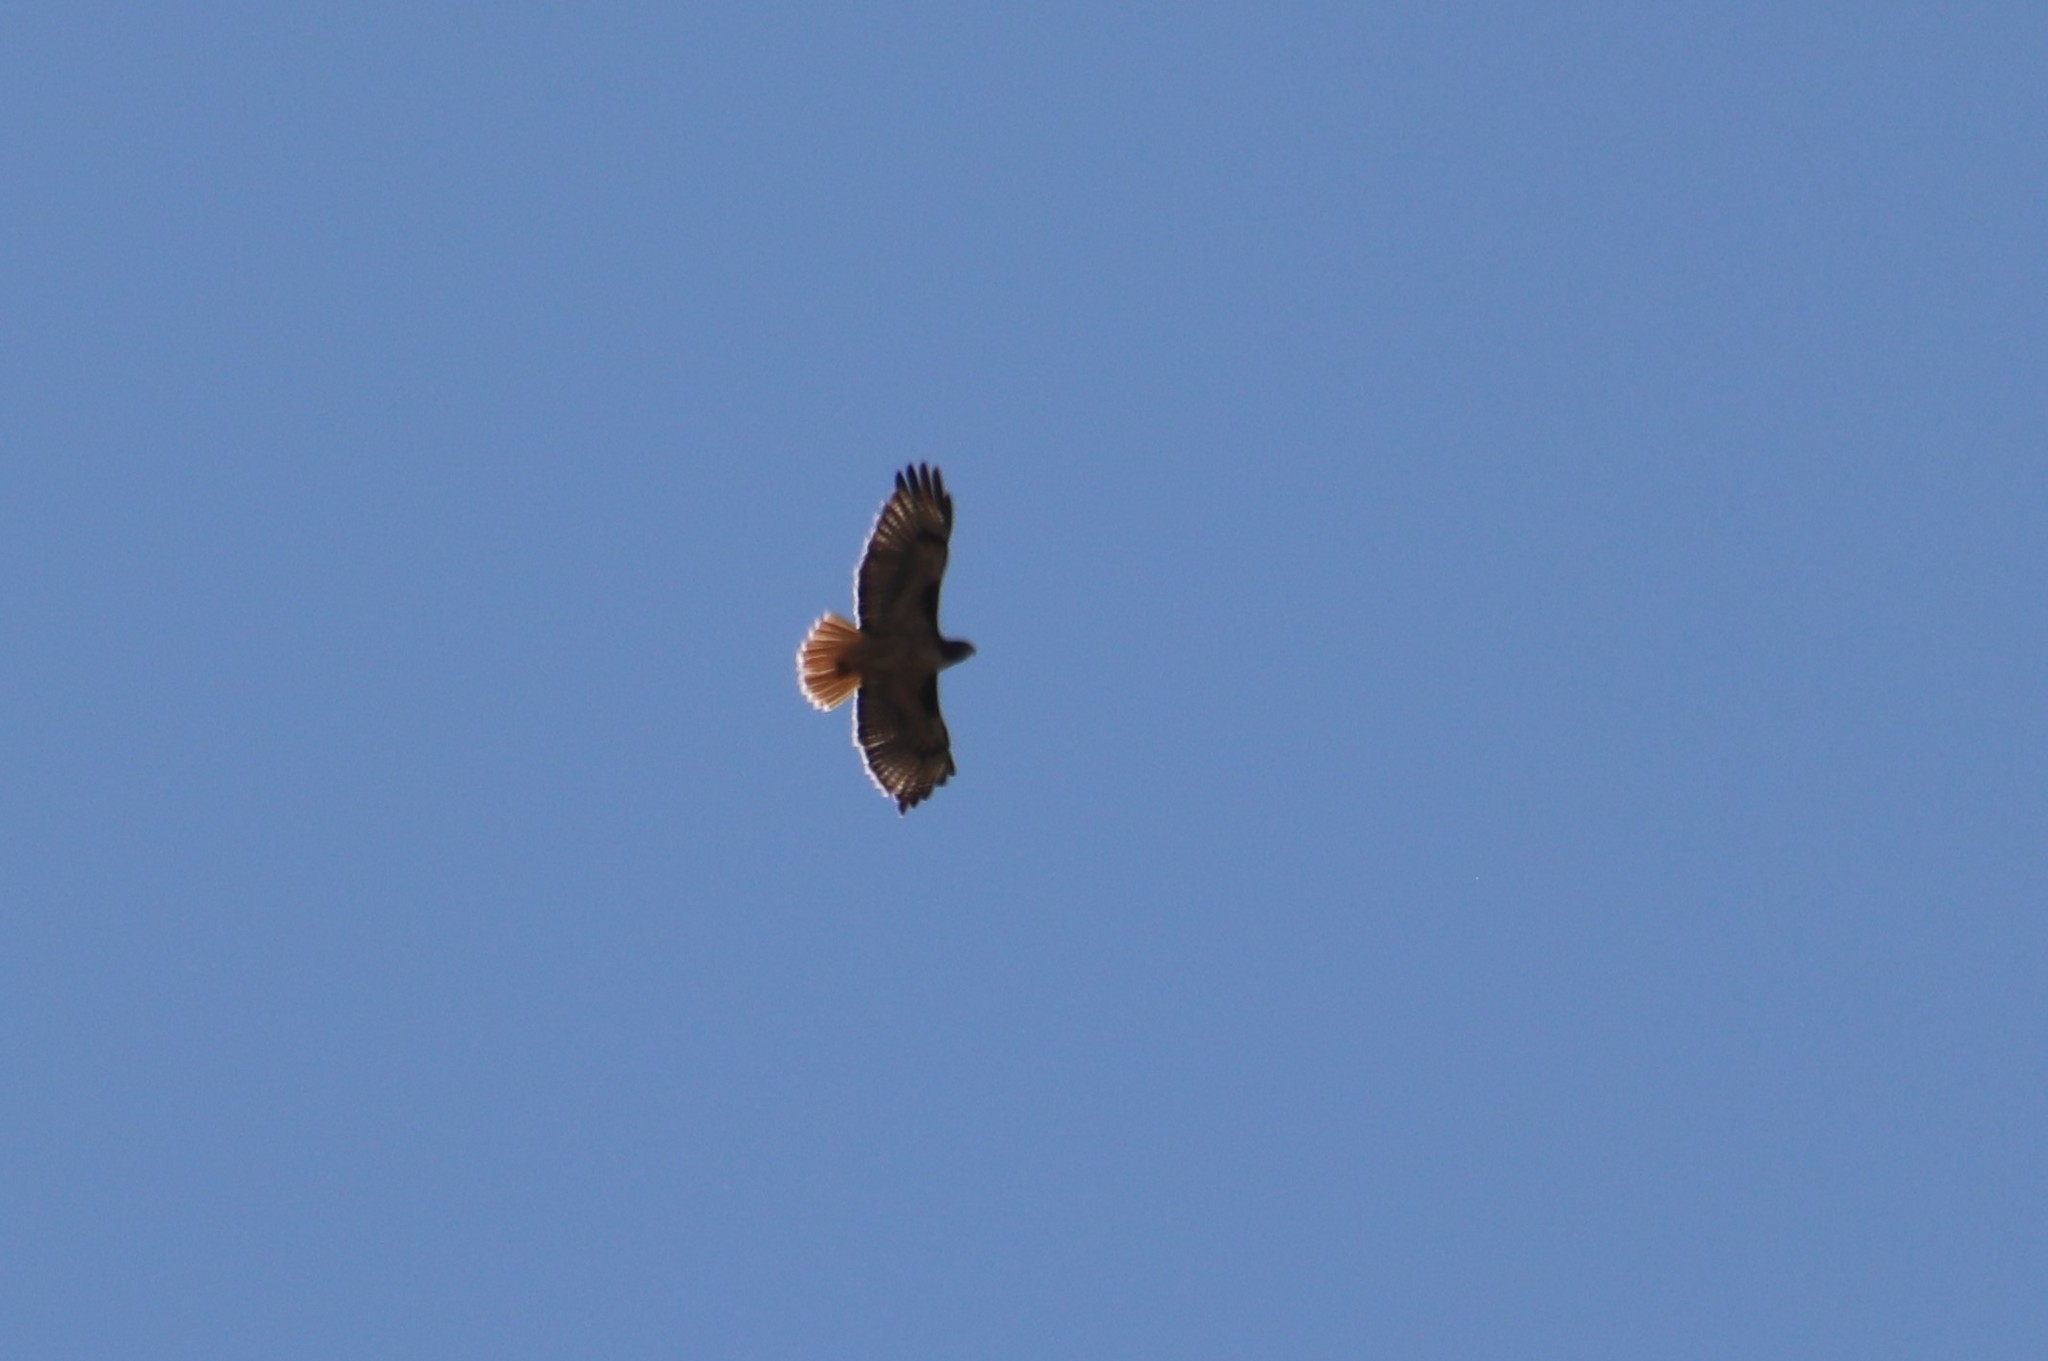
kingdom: Animalia
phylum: Chordata
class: Aves
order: Accipitriformes
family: Accipitridae
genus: Buteo
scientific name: Buteo jamaicensis
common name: Red-tailed hawk
